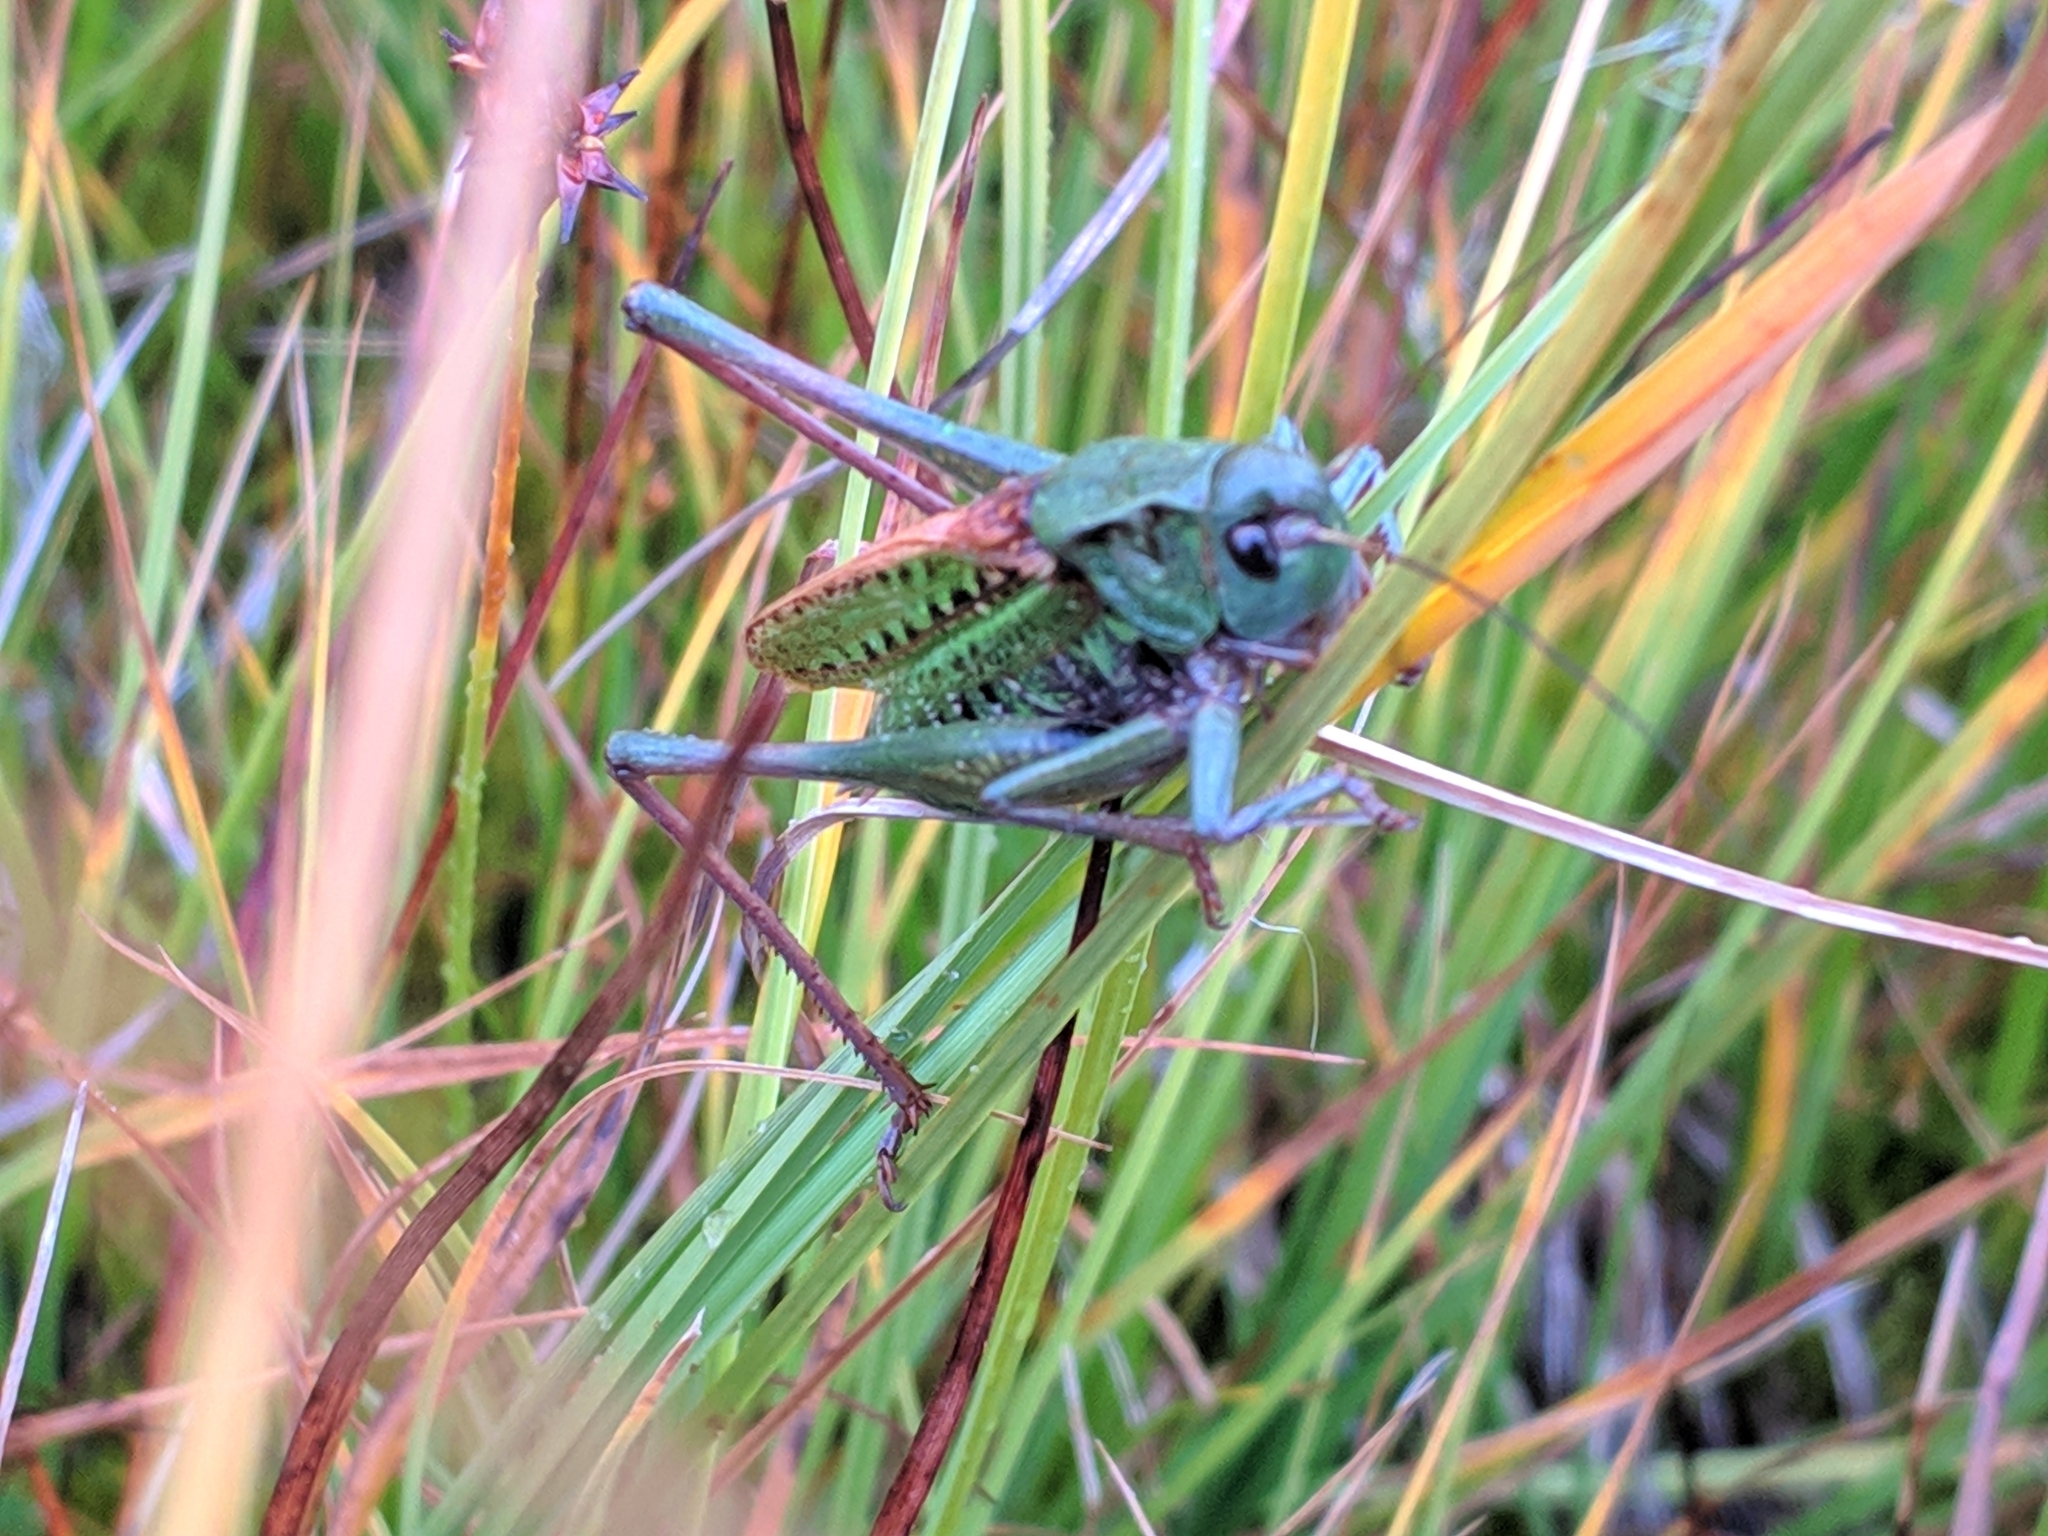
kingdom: Animalia
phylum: Arthropoda
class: Insecta
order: Orthoptera
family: Tettigoniidae
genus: Decticus
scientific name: Decticus verrucivorus
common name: Wart-biter
